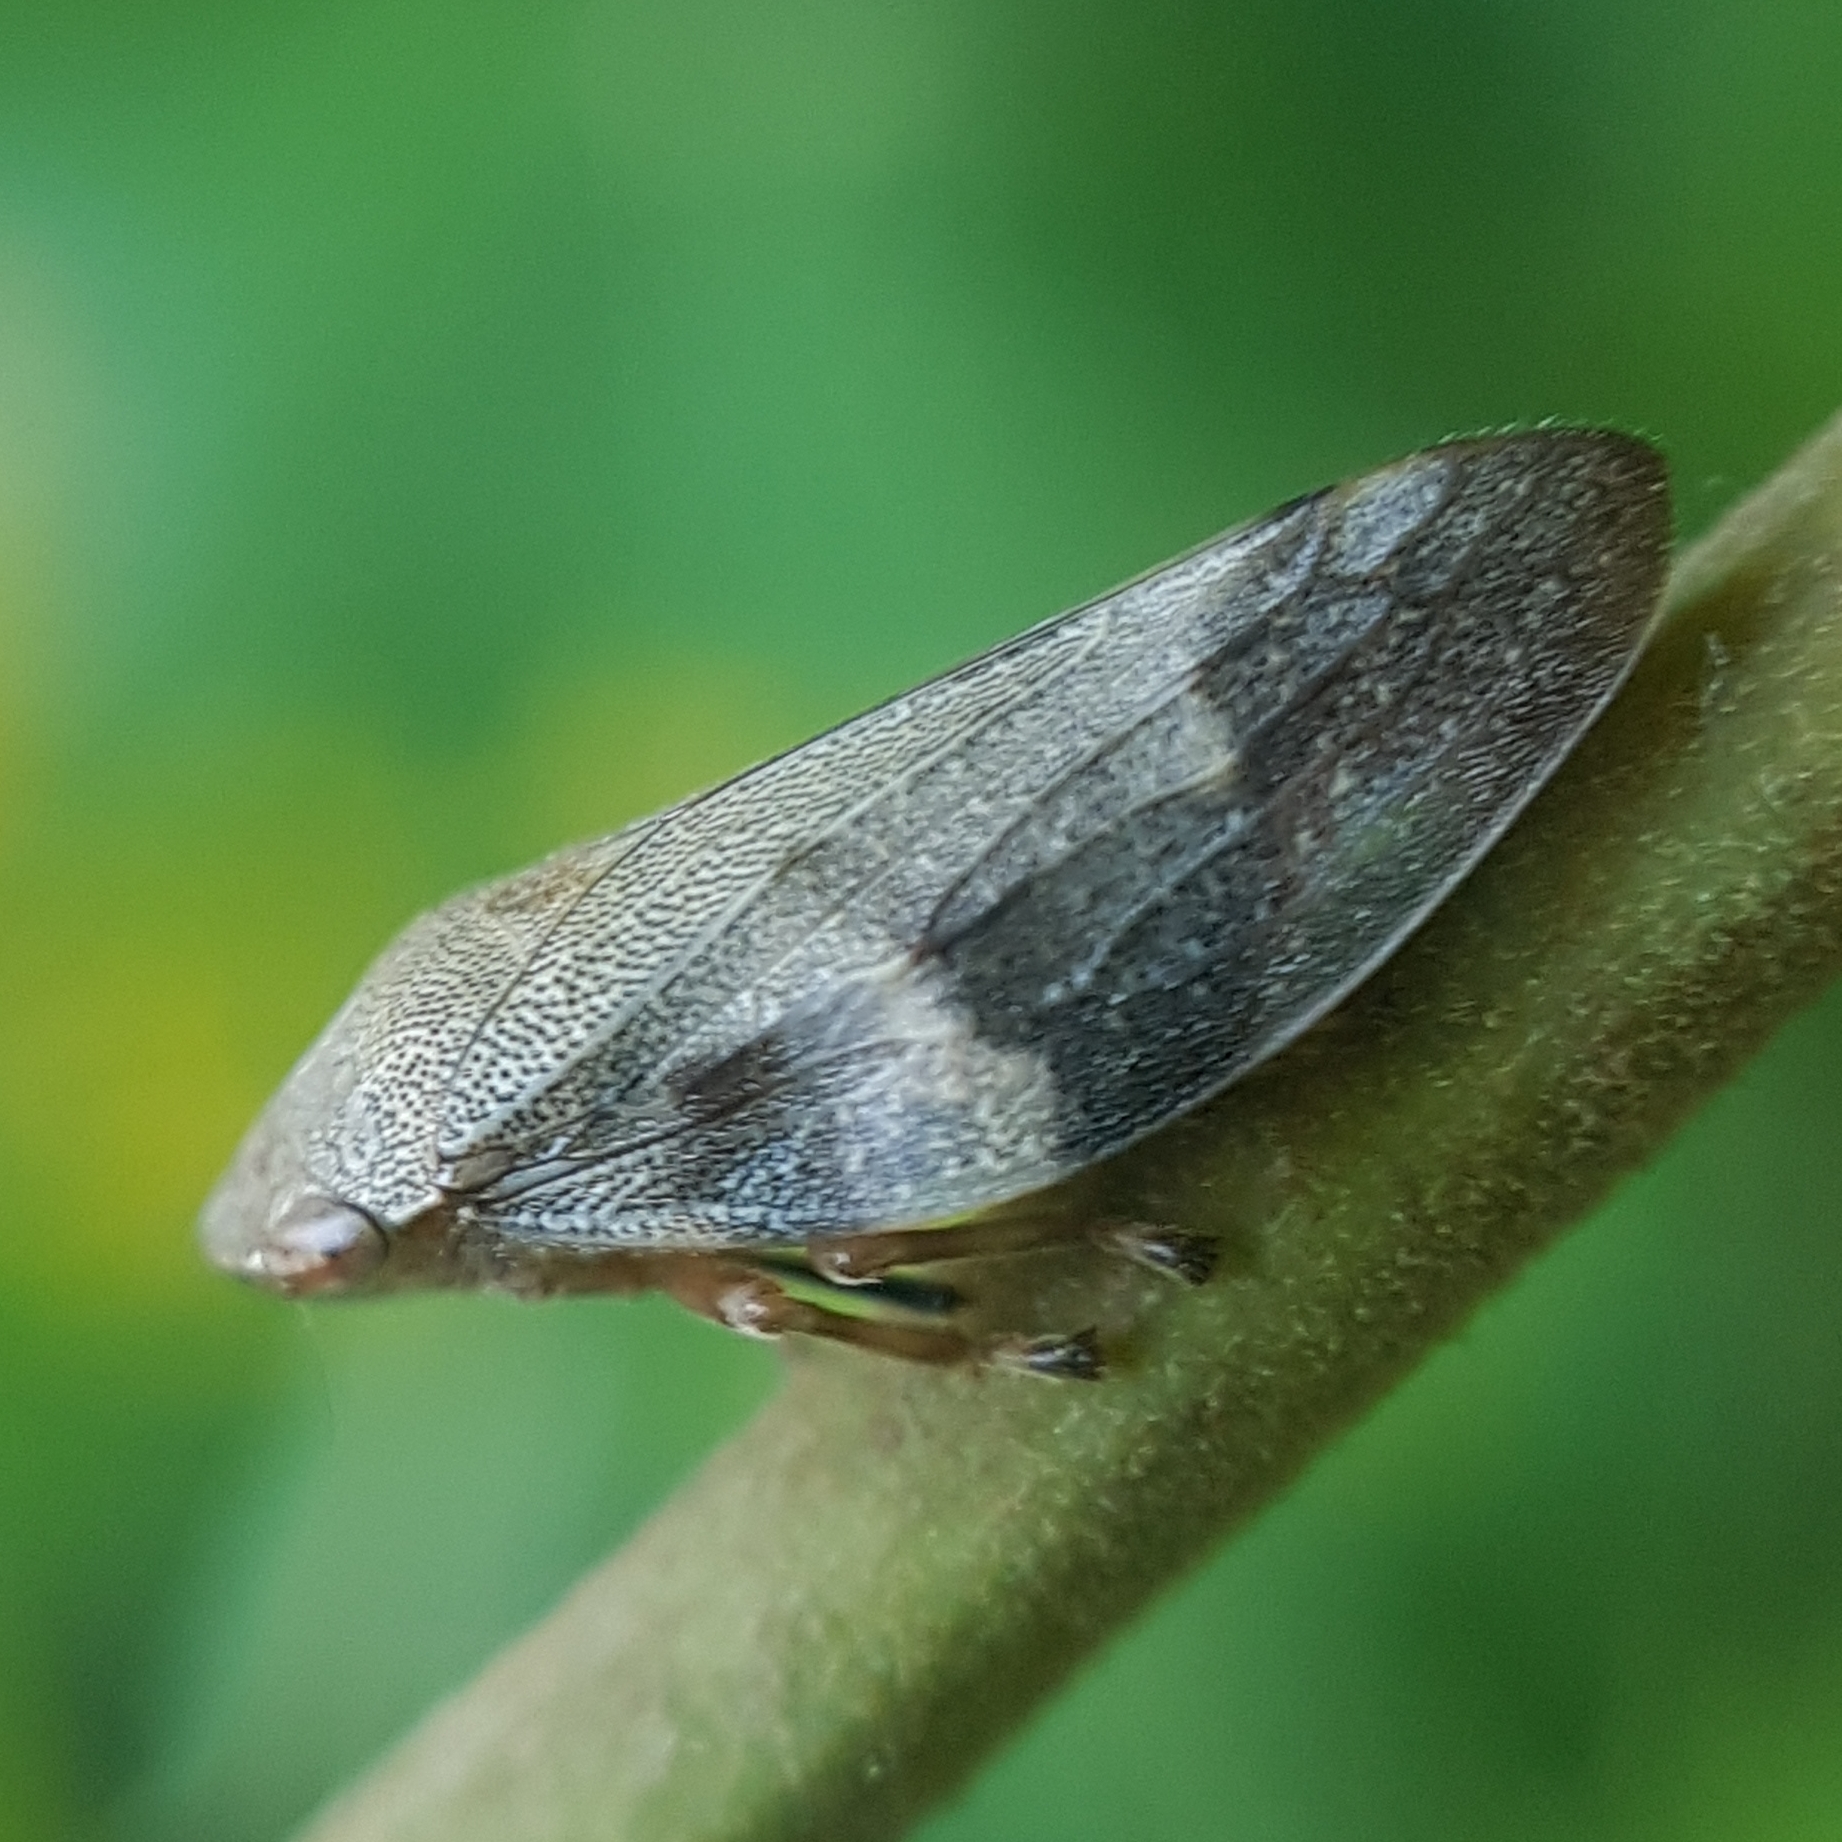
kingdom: Animalia
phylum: Arthropoda
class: Insecta
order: Hemiptera
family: Aphrophoridae
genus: Aphrophora
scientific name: Aphrophora alni
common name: European alder spittlebug
